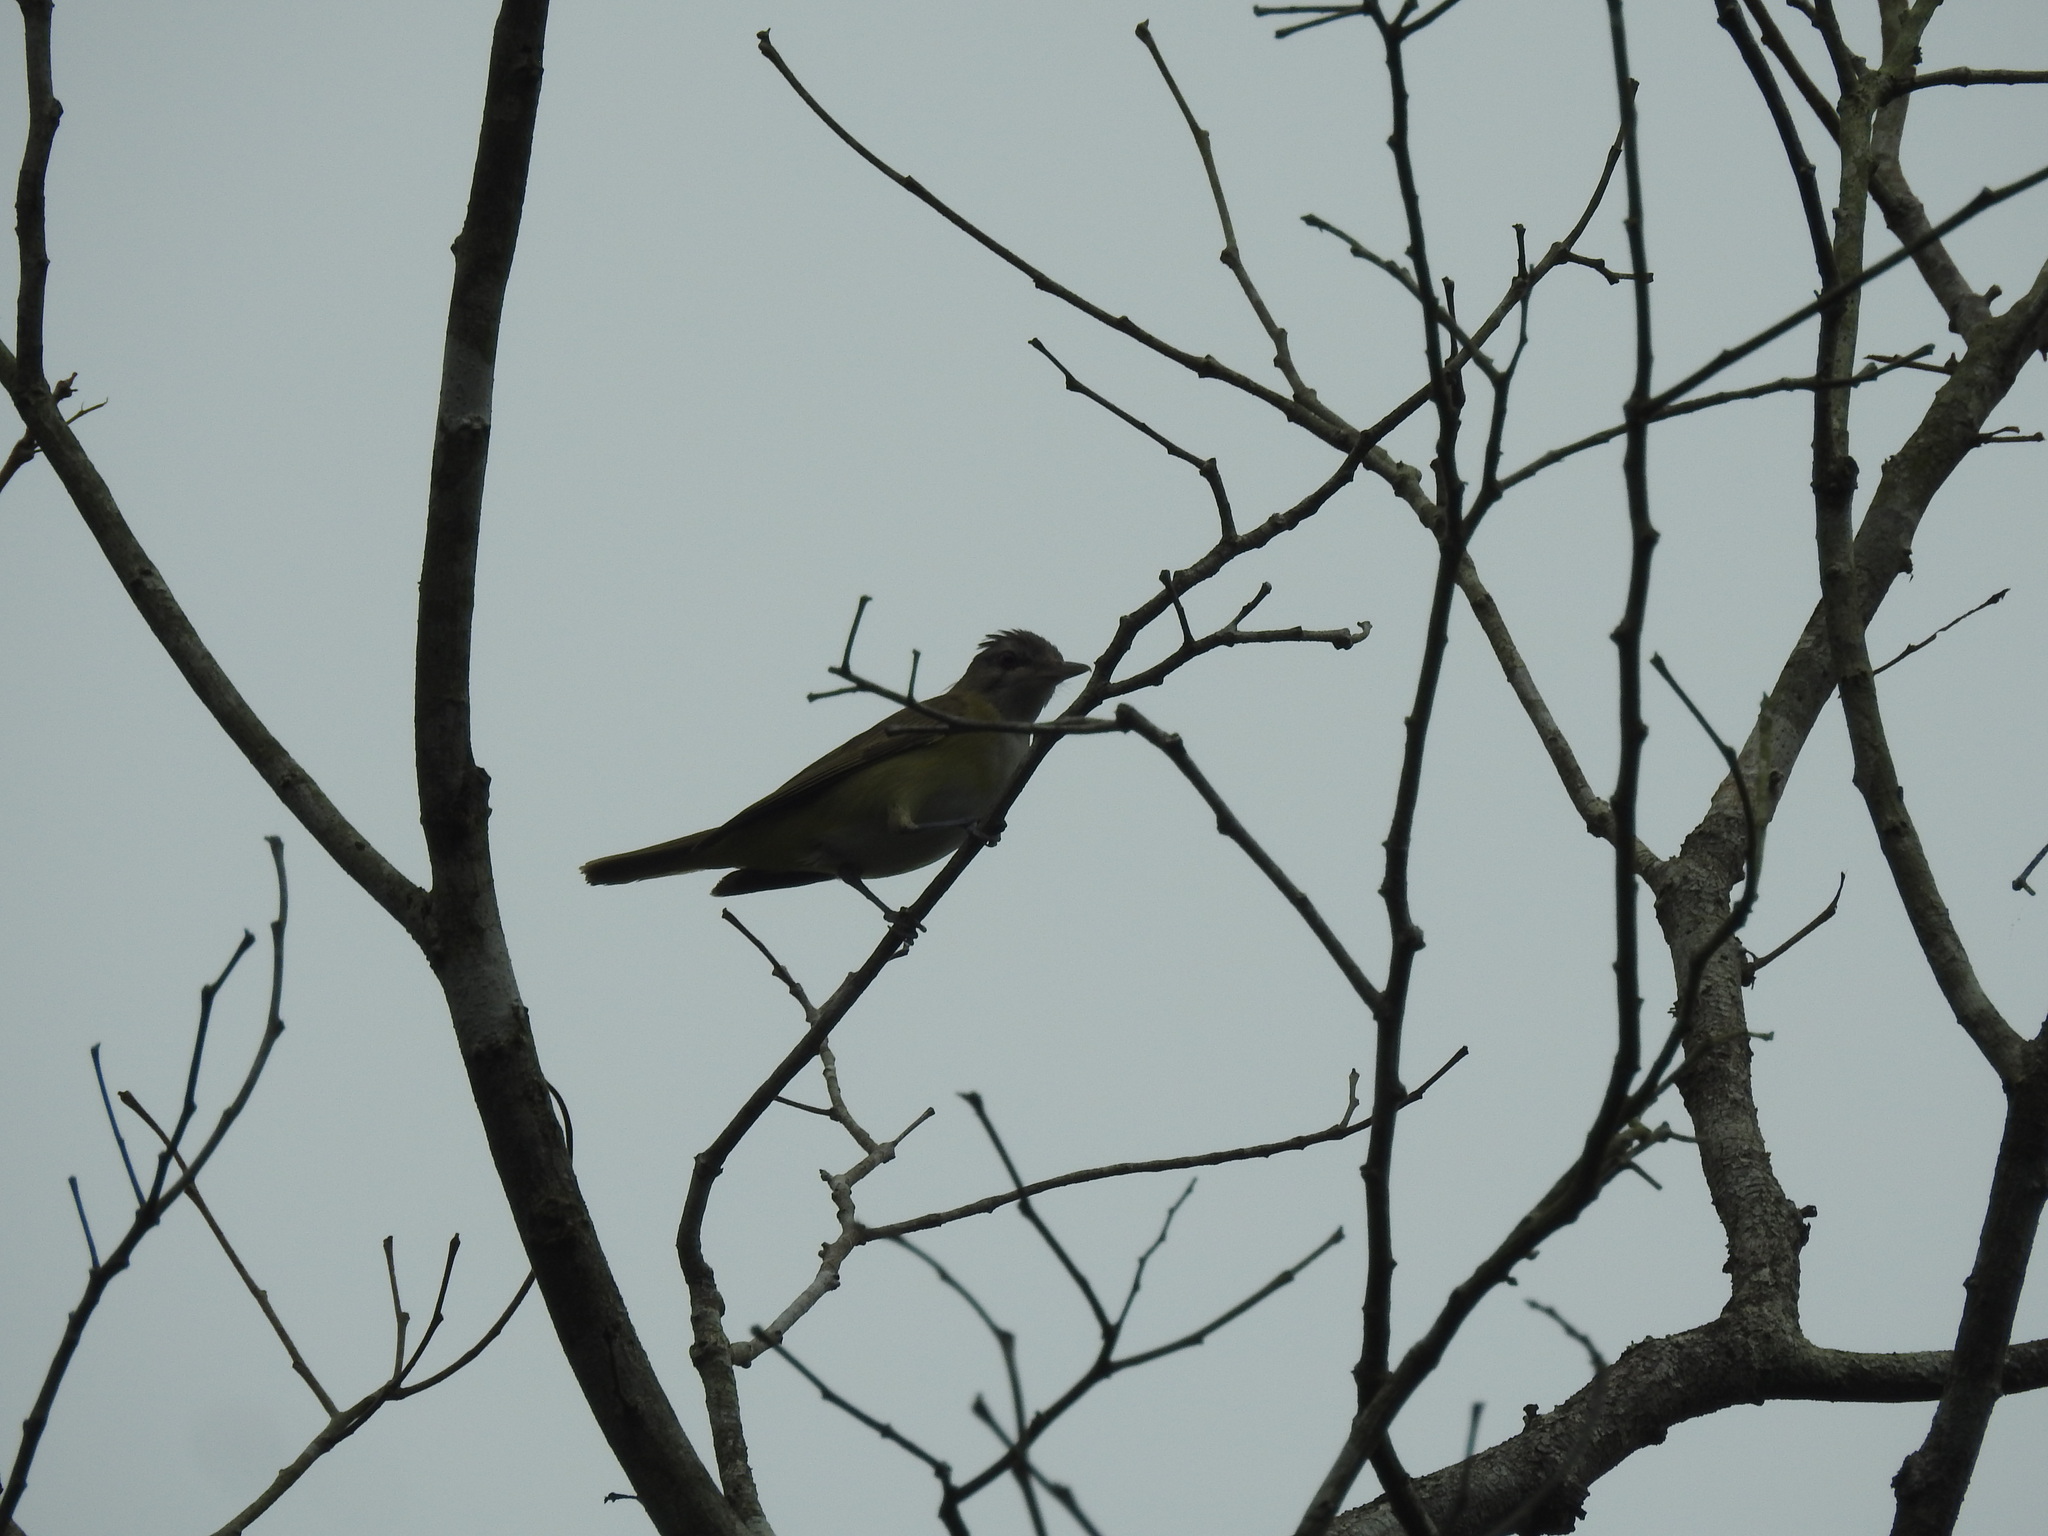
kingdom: Animalia
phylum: Chordata
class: Aves
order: Passeriformes
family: Vireonidae
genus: Vireo
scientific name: Vireo flavoviridis
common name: Yellow-green vireo
